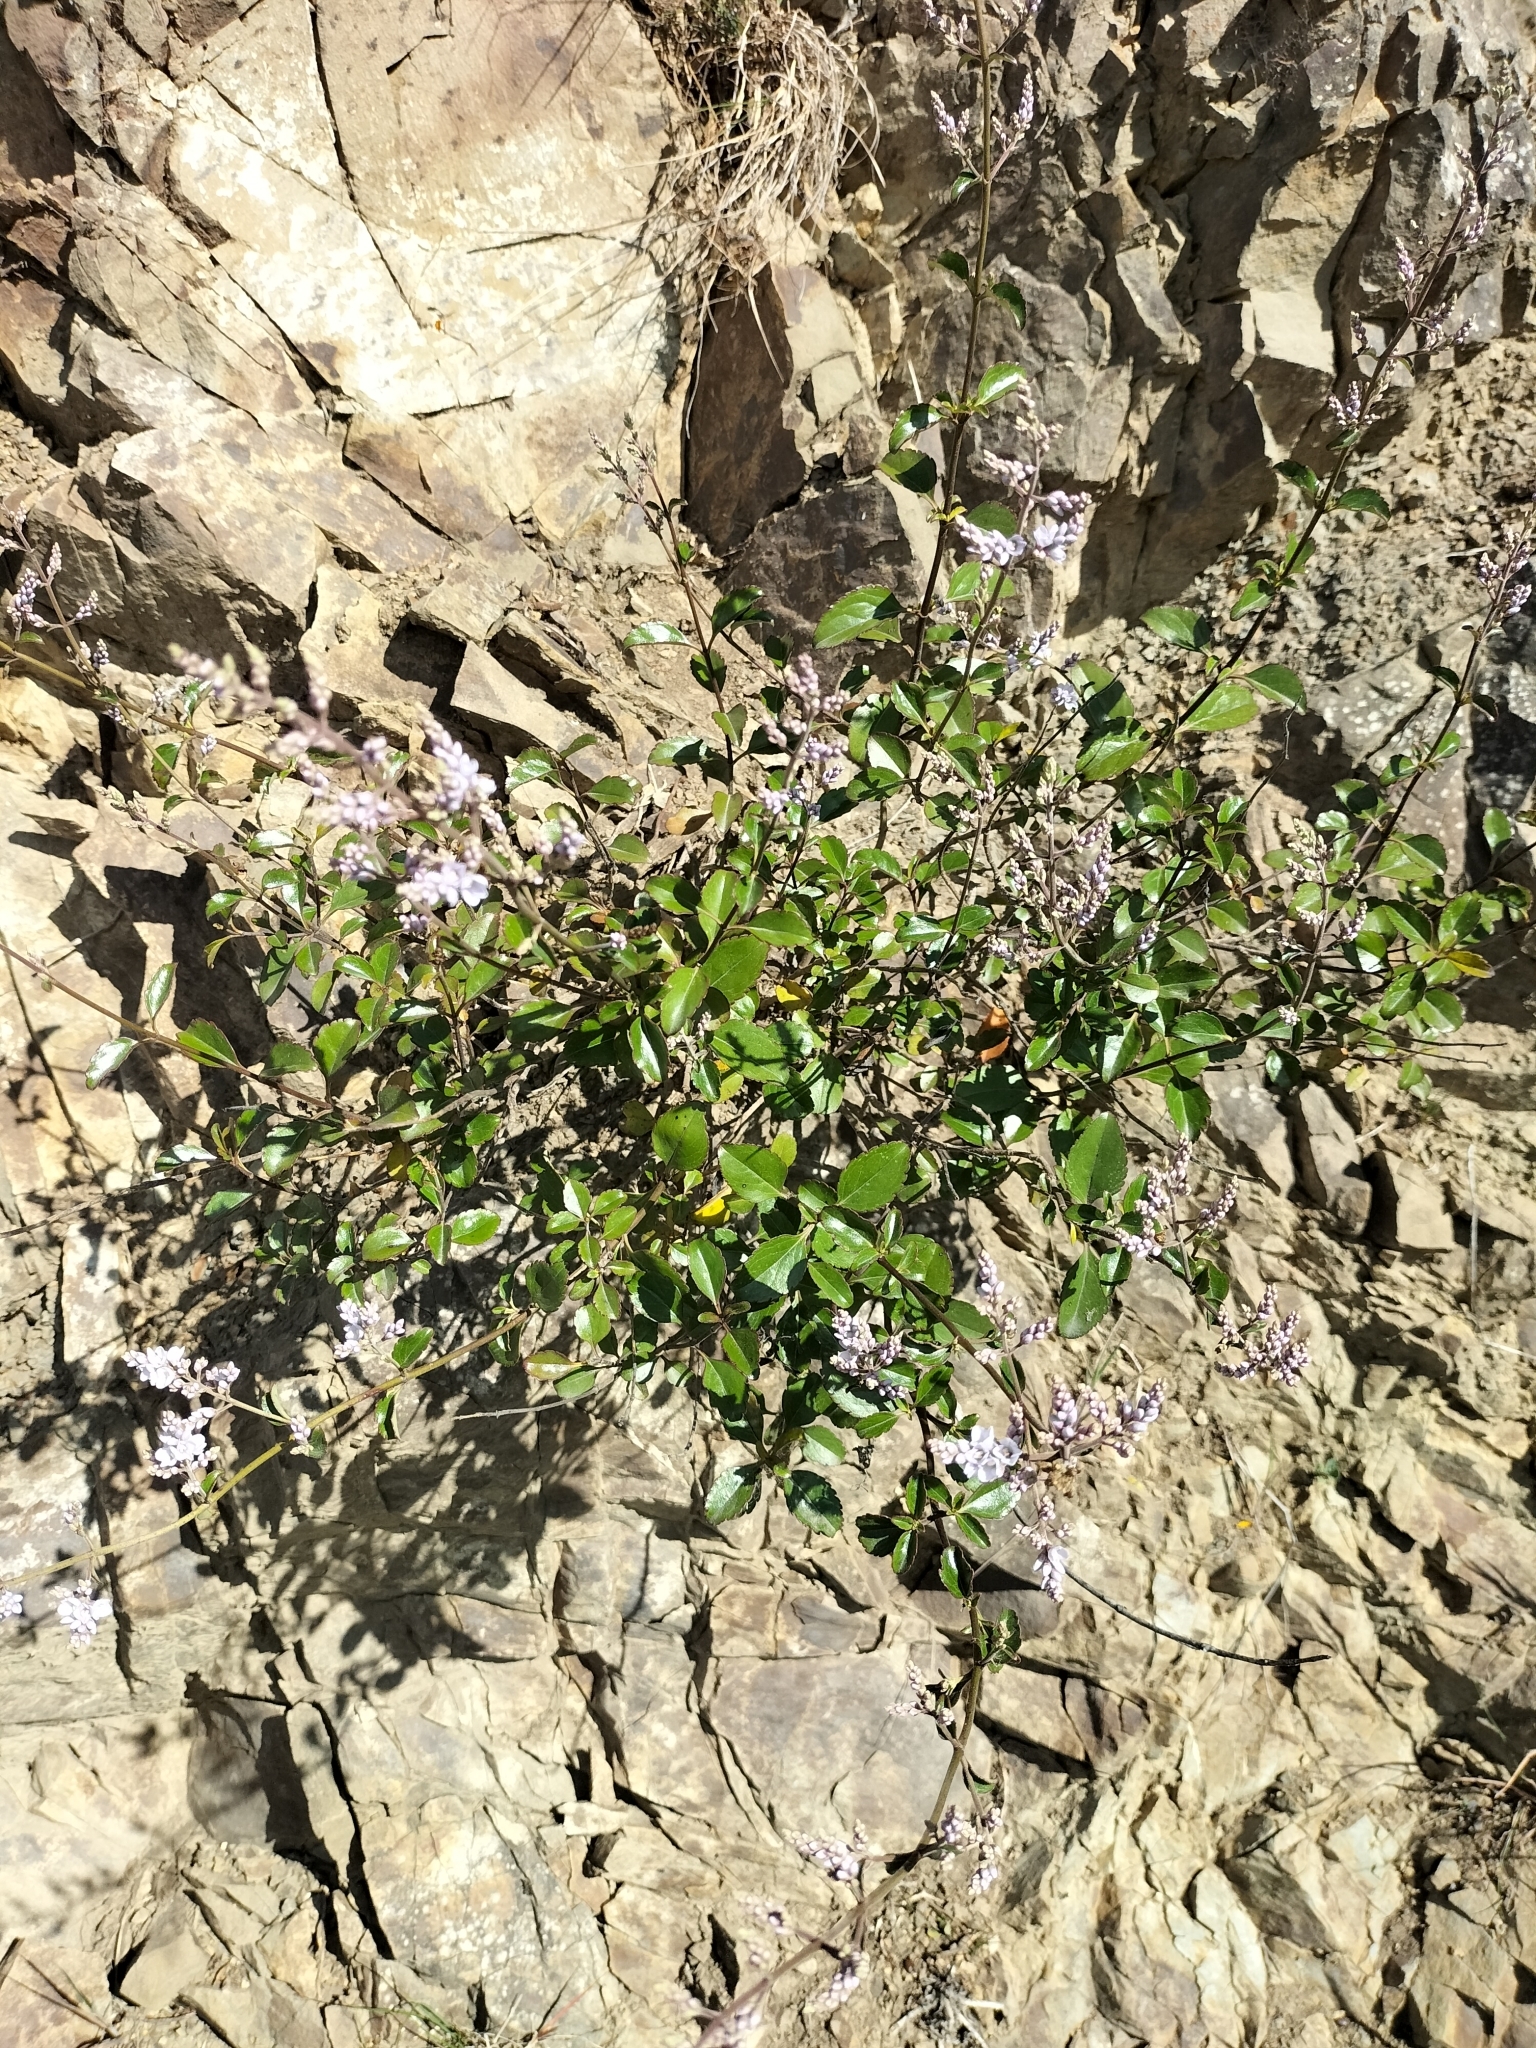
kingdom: Plantae
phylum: Tracheophyta
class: Magnoliopsida
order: Lamiales
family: Plantaginaceae
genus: Veronica
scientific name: Veronica hulkeana
